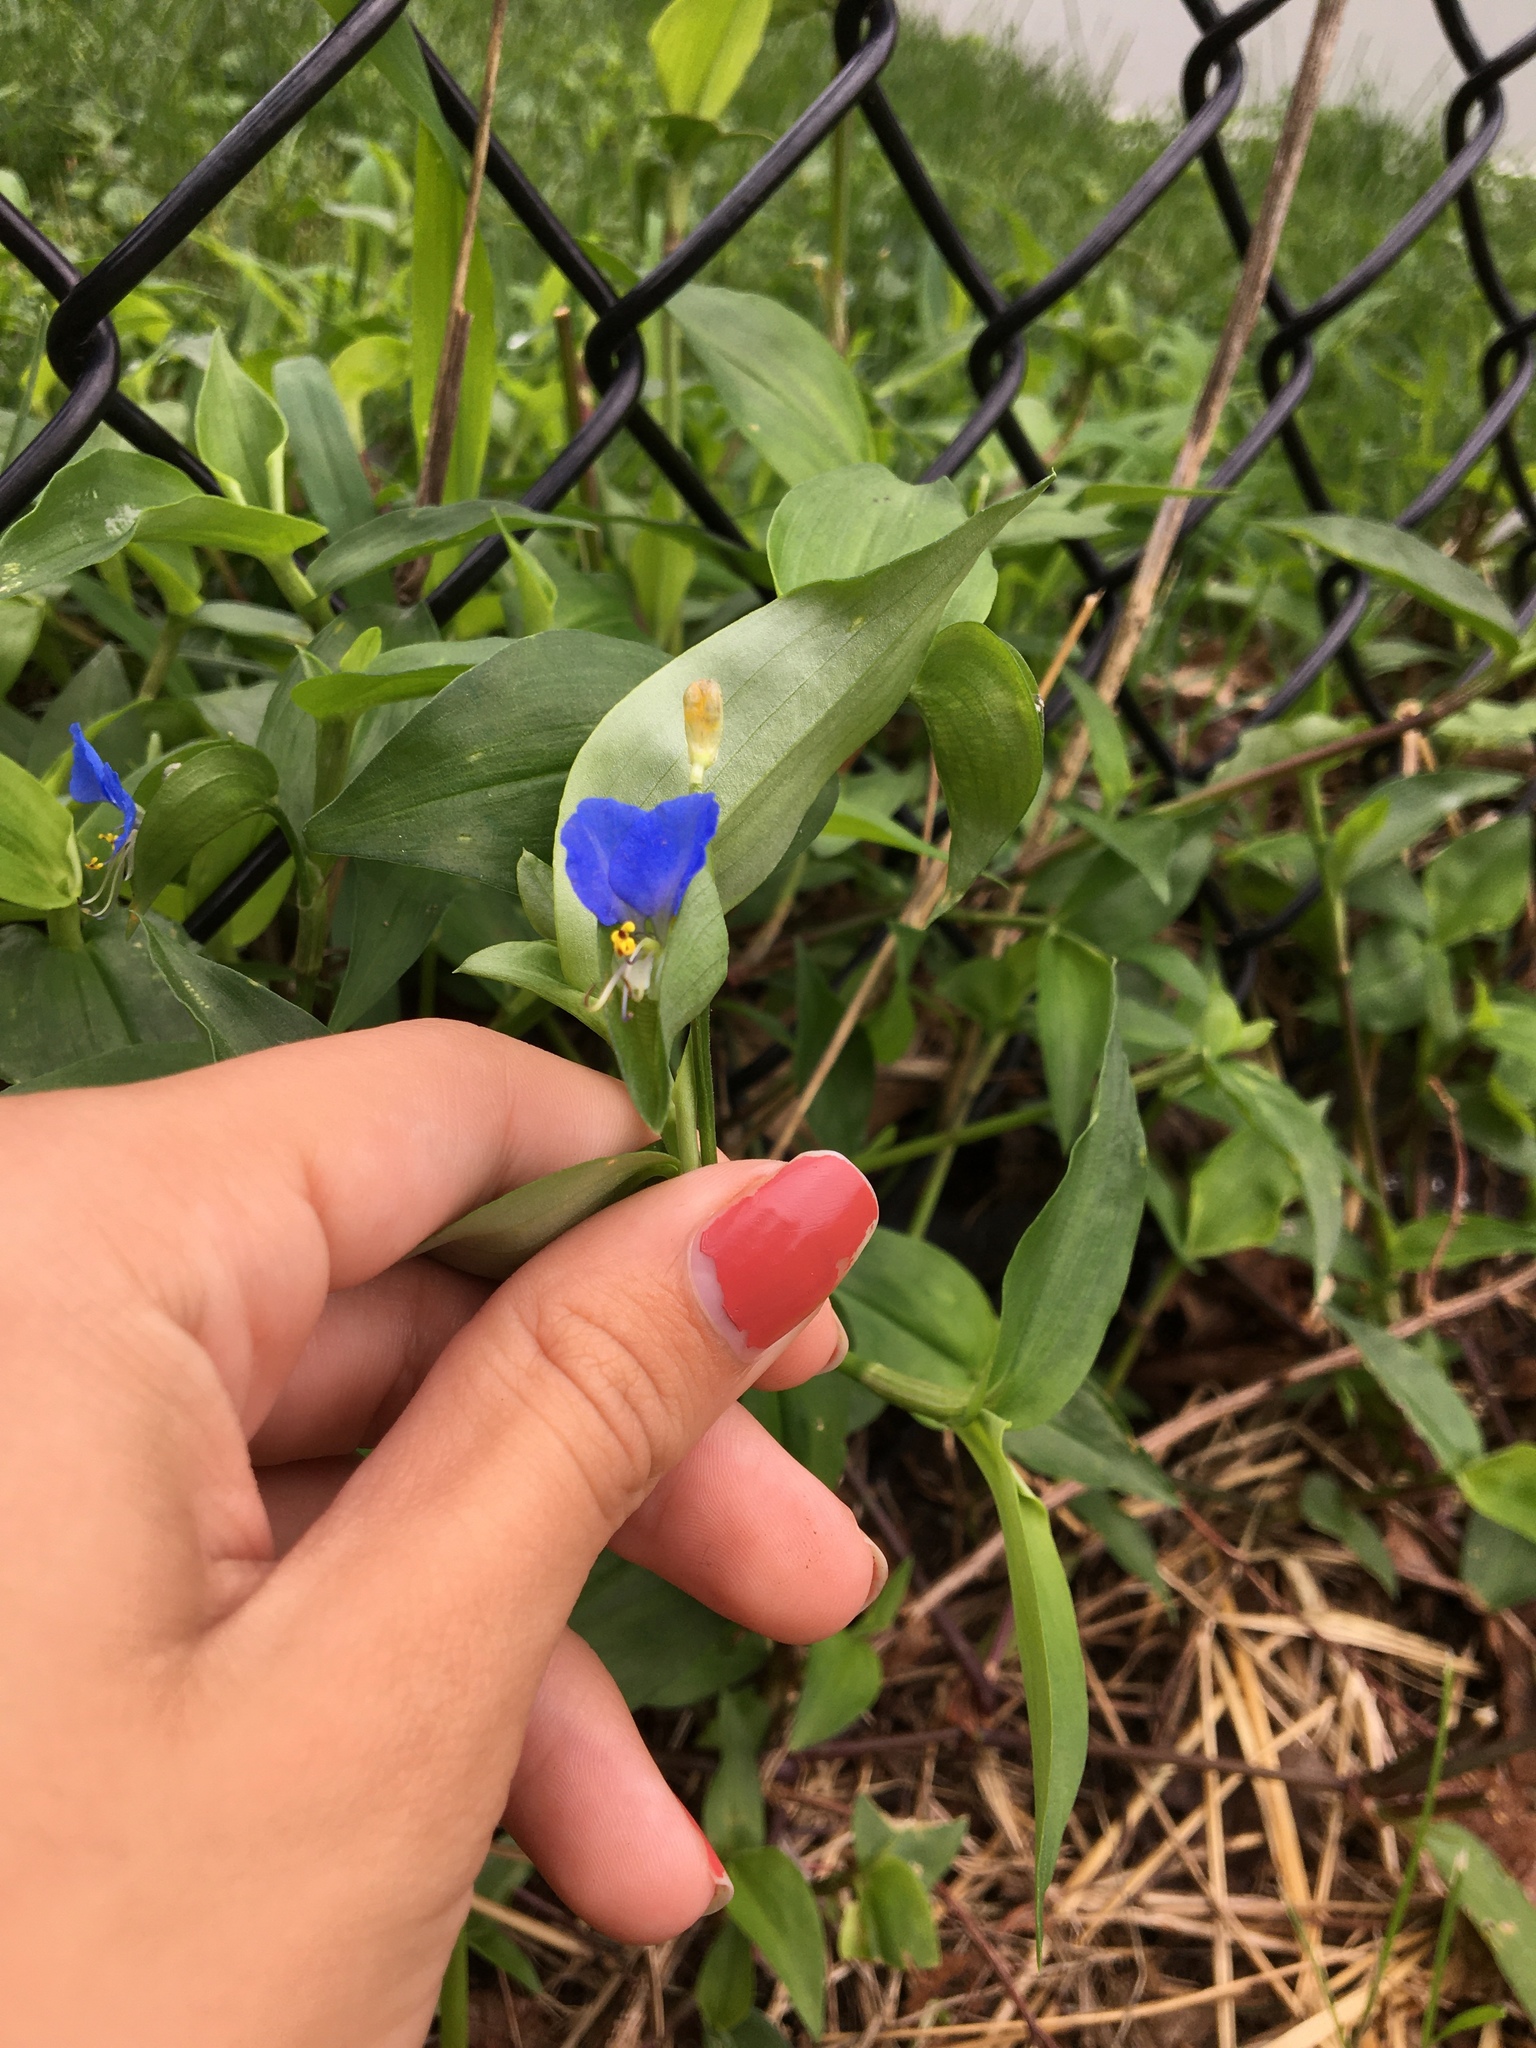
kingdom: Plantae
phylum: Tracheophyta
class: Liliopsida
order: Commelinales
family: Commelinaceae
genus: Commelina
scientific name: Commelina communis
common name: Asiatic dayflower
